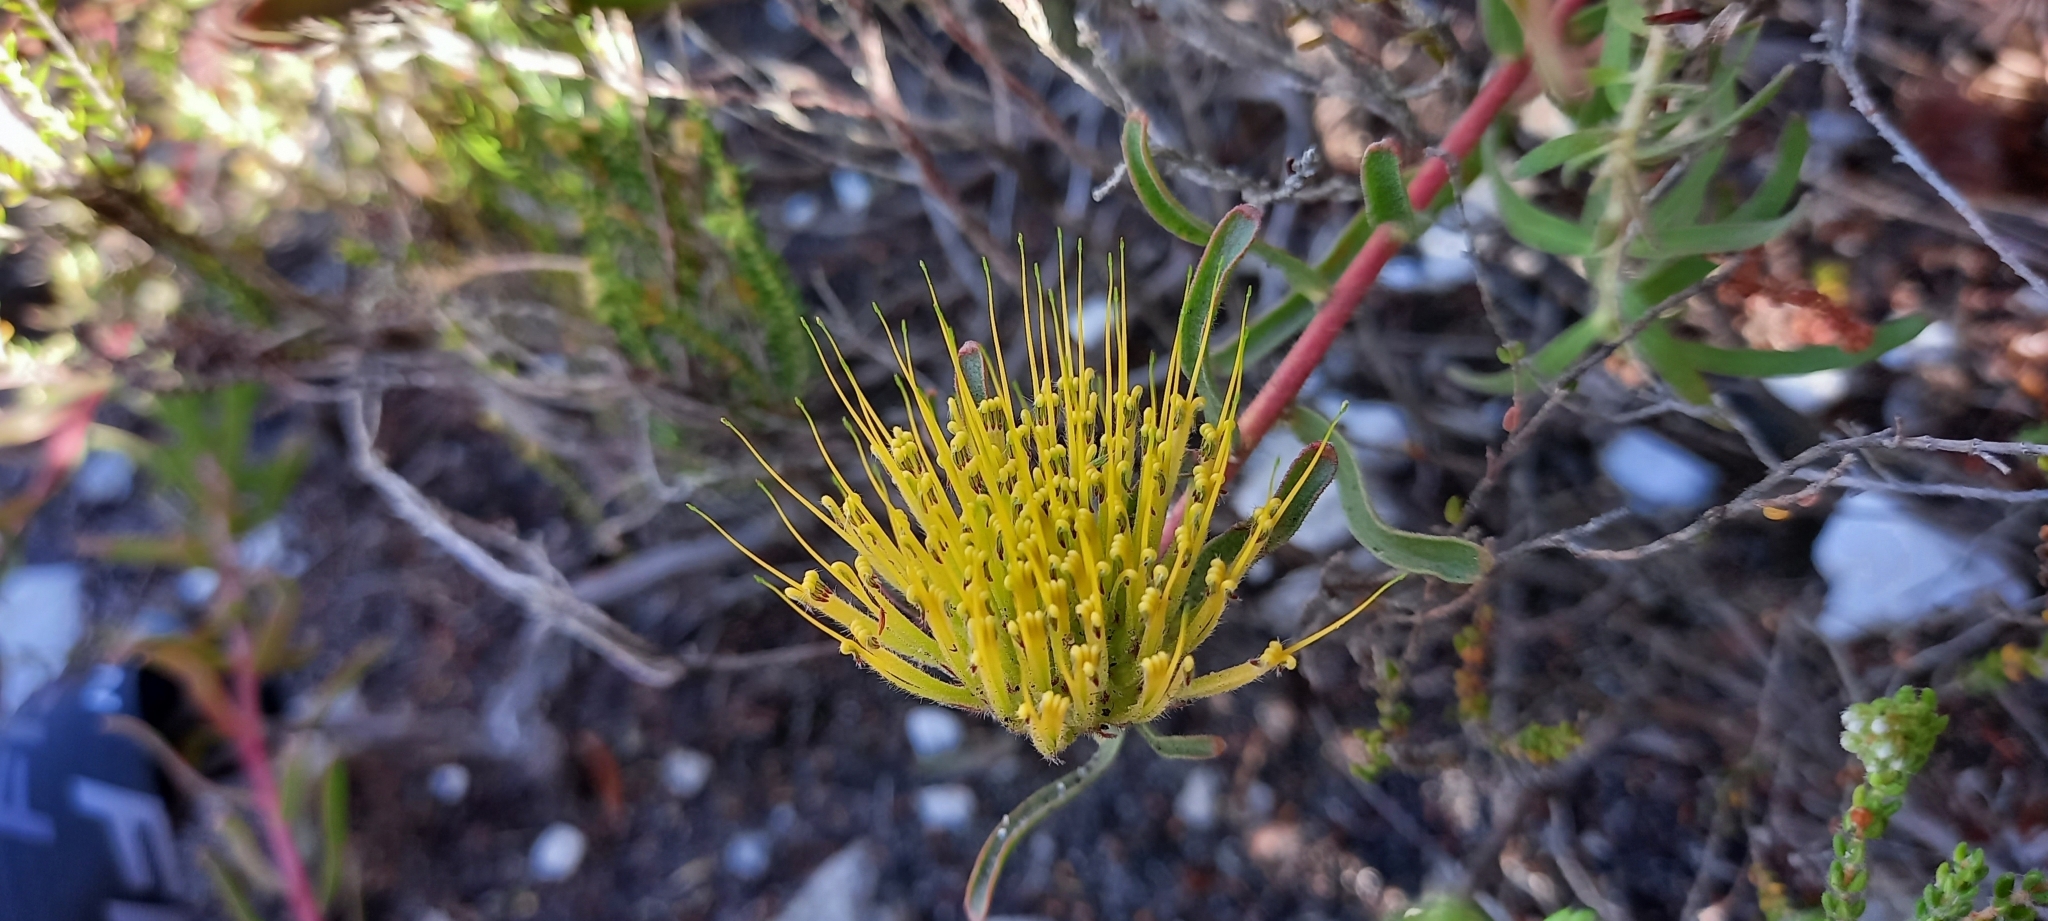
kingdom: Plantae
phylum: Tracheophyta
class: Magnoliopsida
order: Proteales
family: Proteaceae
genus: Leucospermum
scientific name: Leucospermum gracile
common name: Hermanus pincushion
